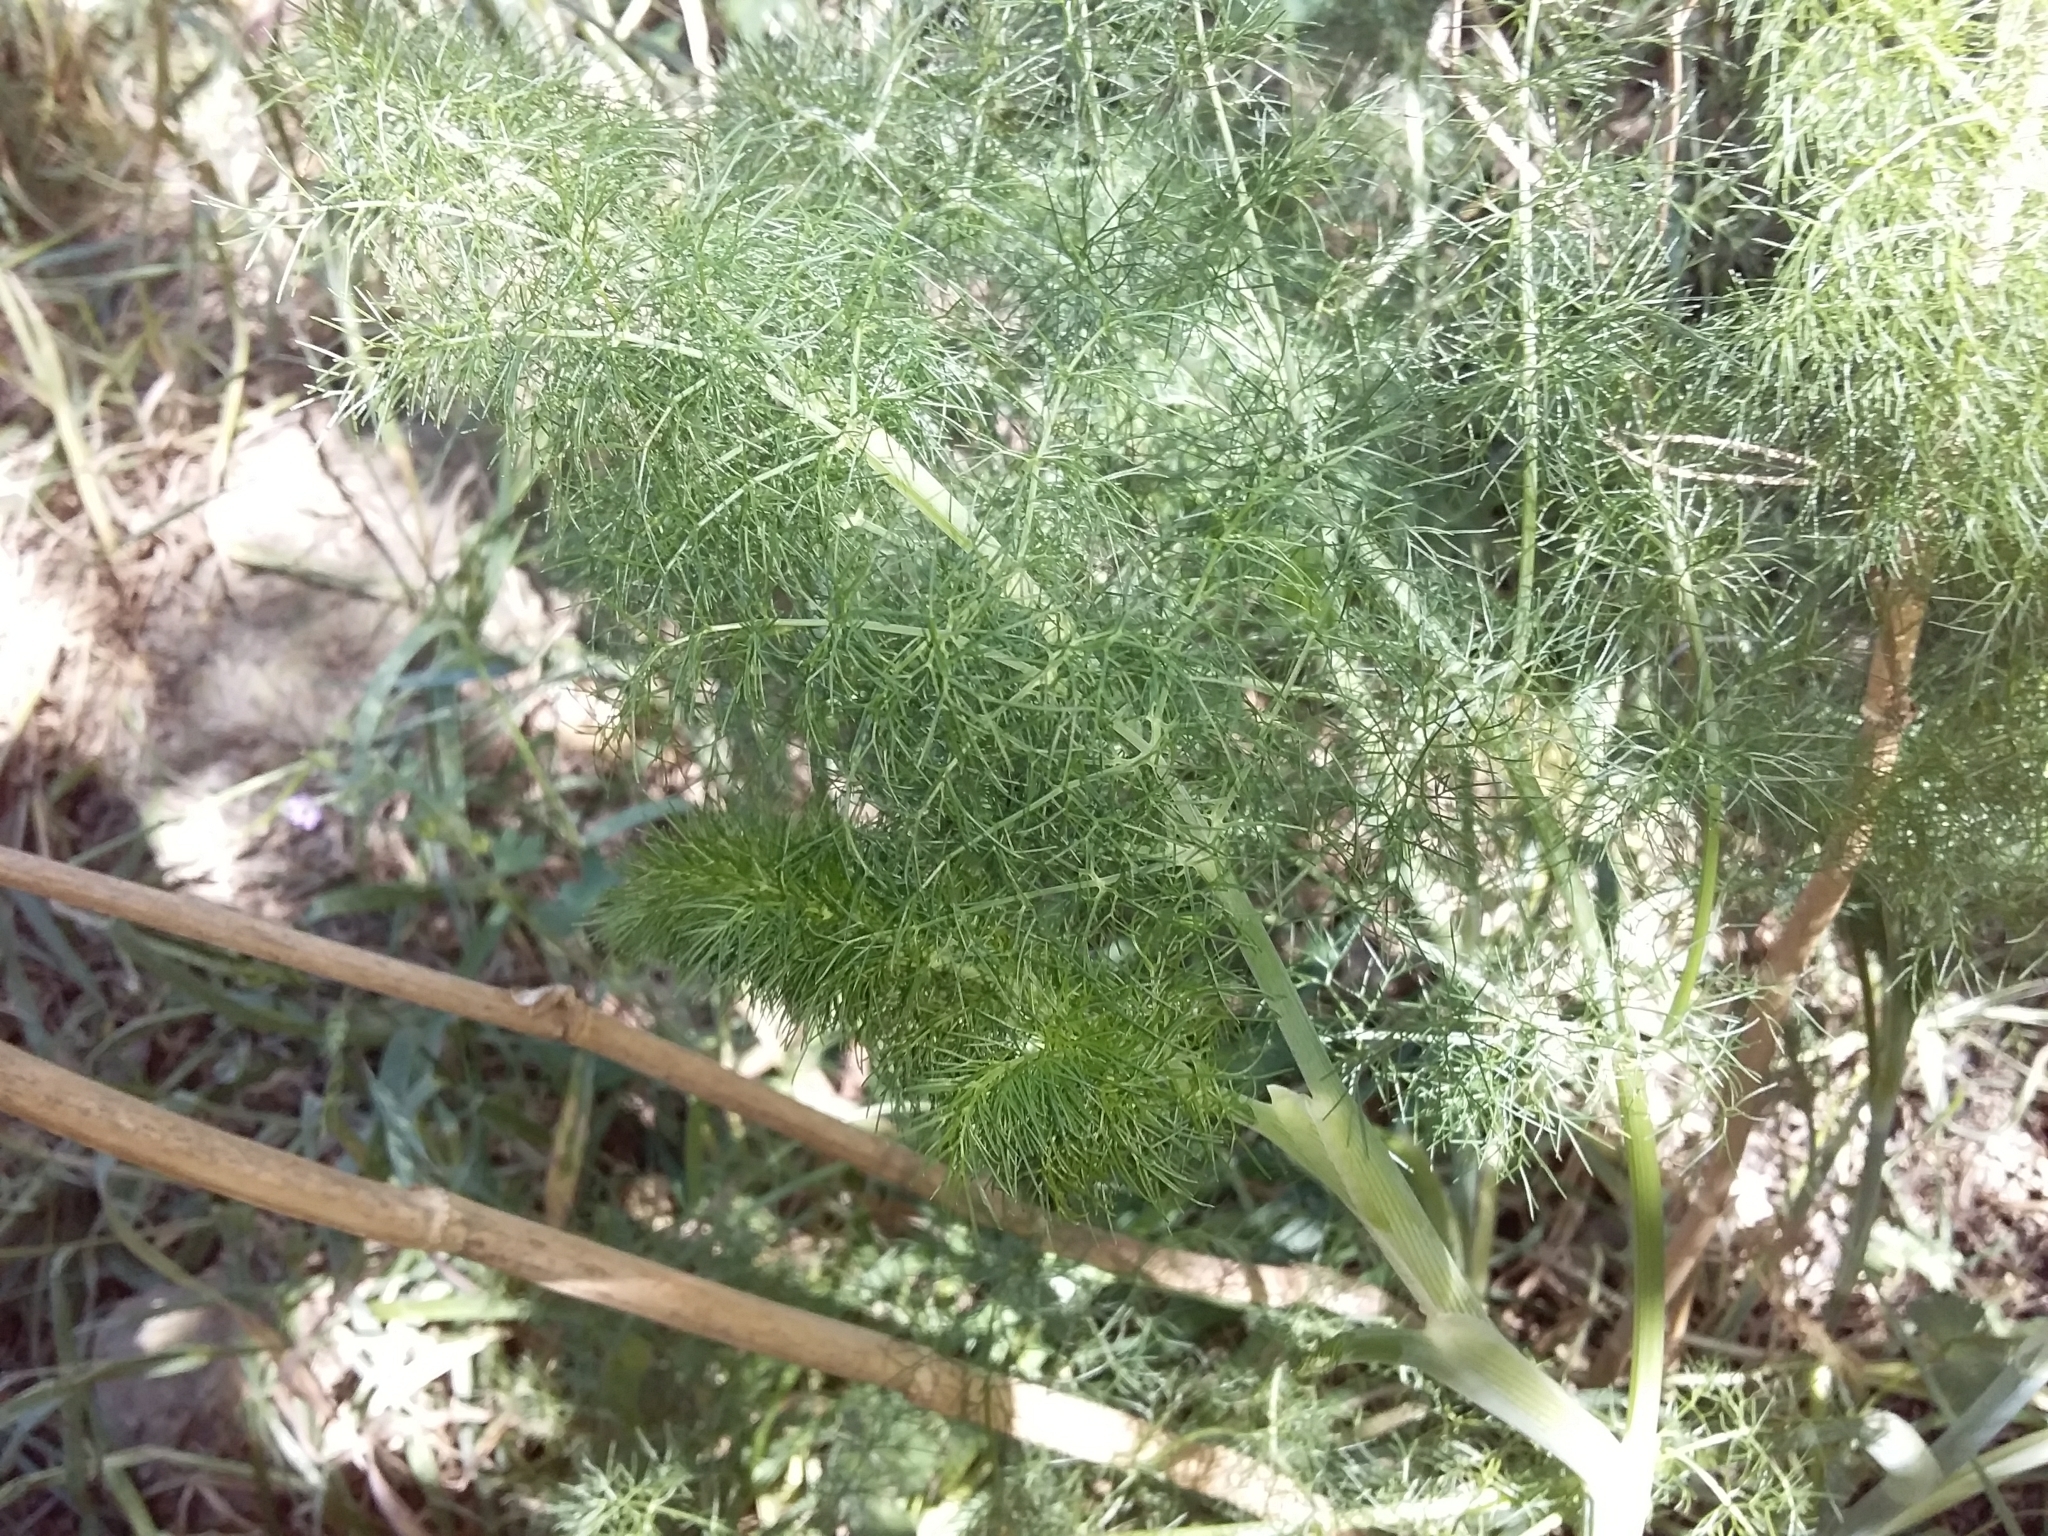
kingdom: Plantae
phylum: Tracheophyta
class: Magnoliopsida
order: Apiales
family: Apiaceae
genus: Foeniculum
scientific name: Foeniculum vulgare
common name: Fennel
